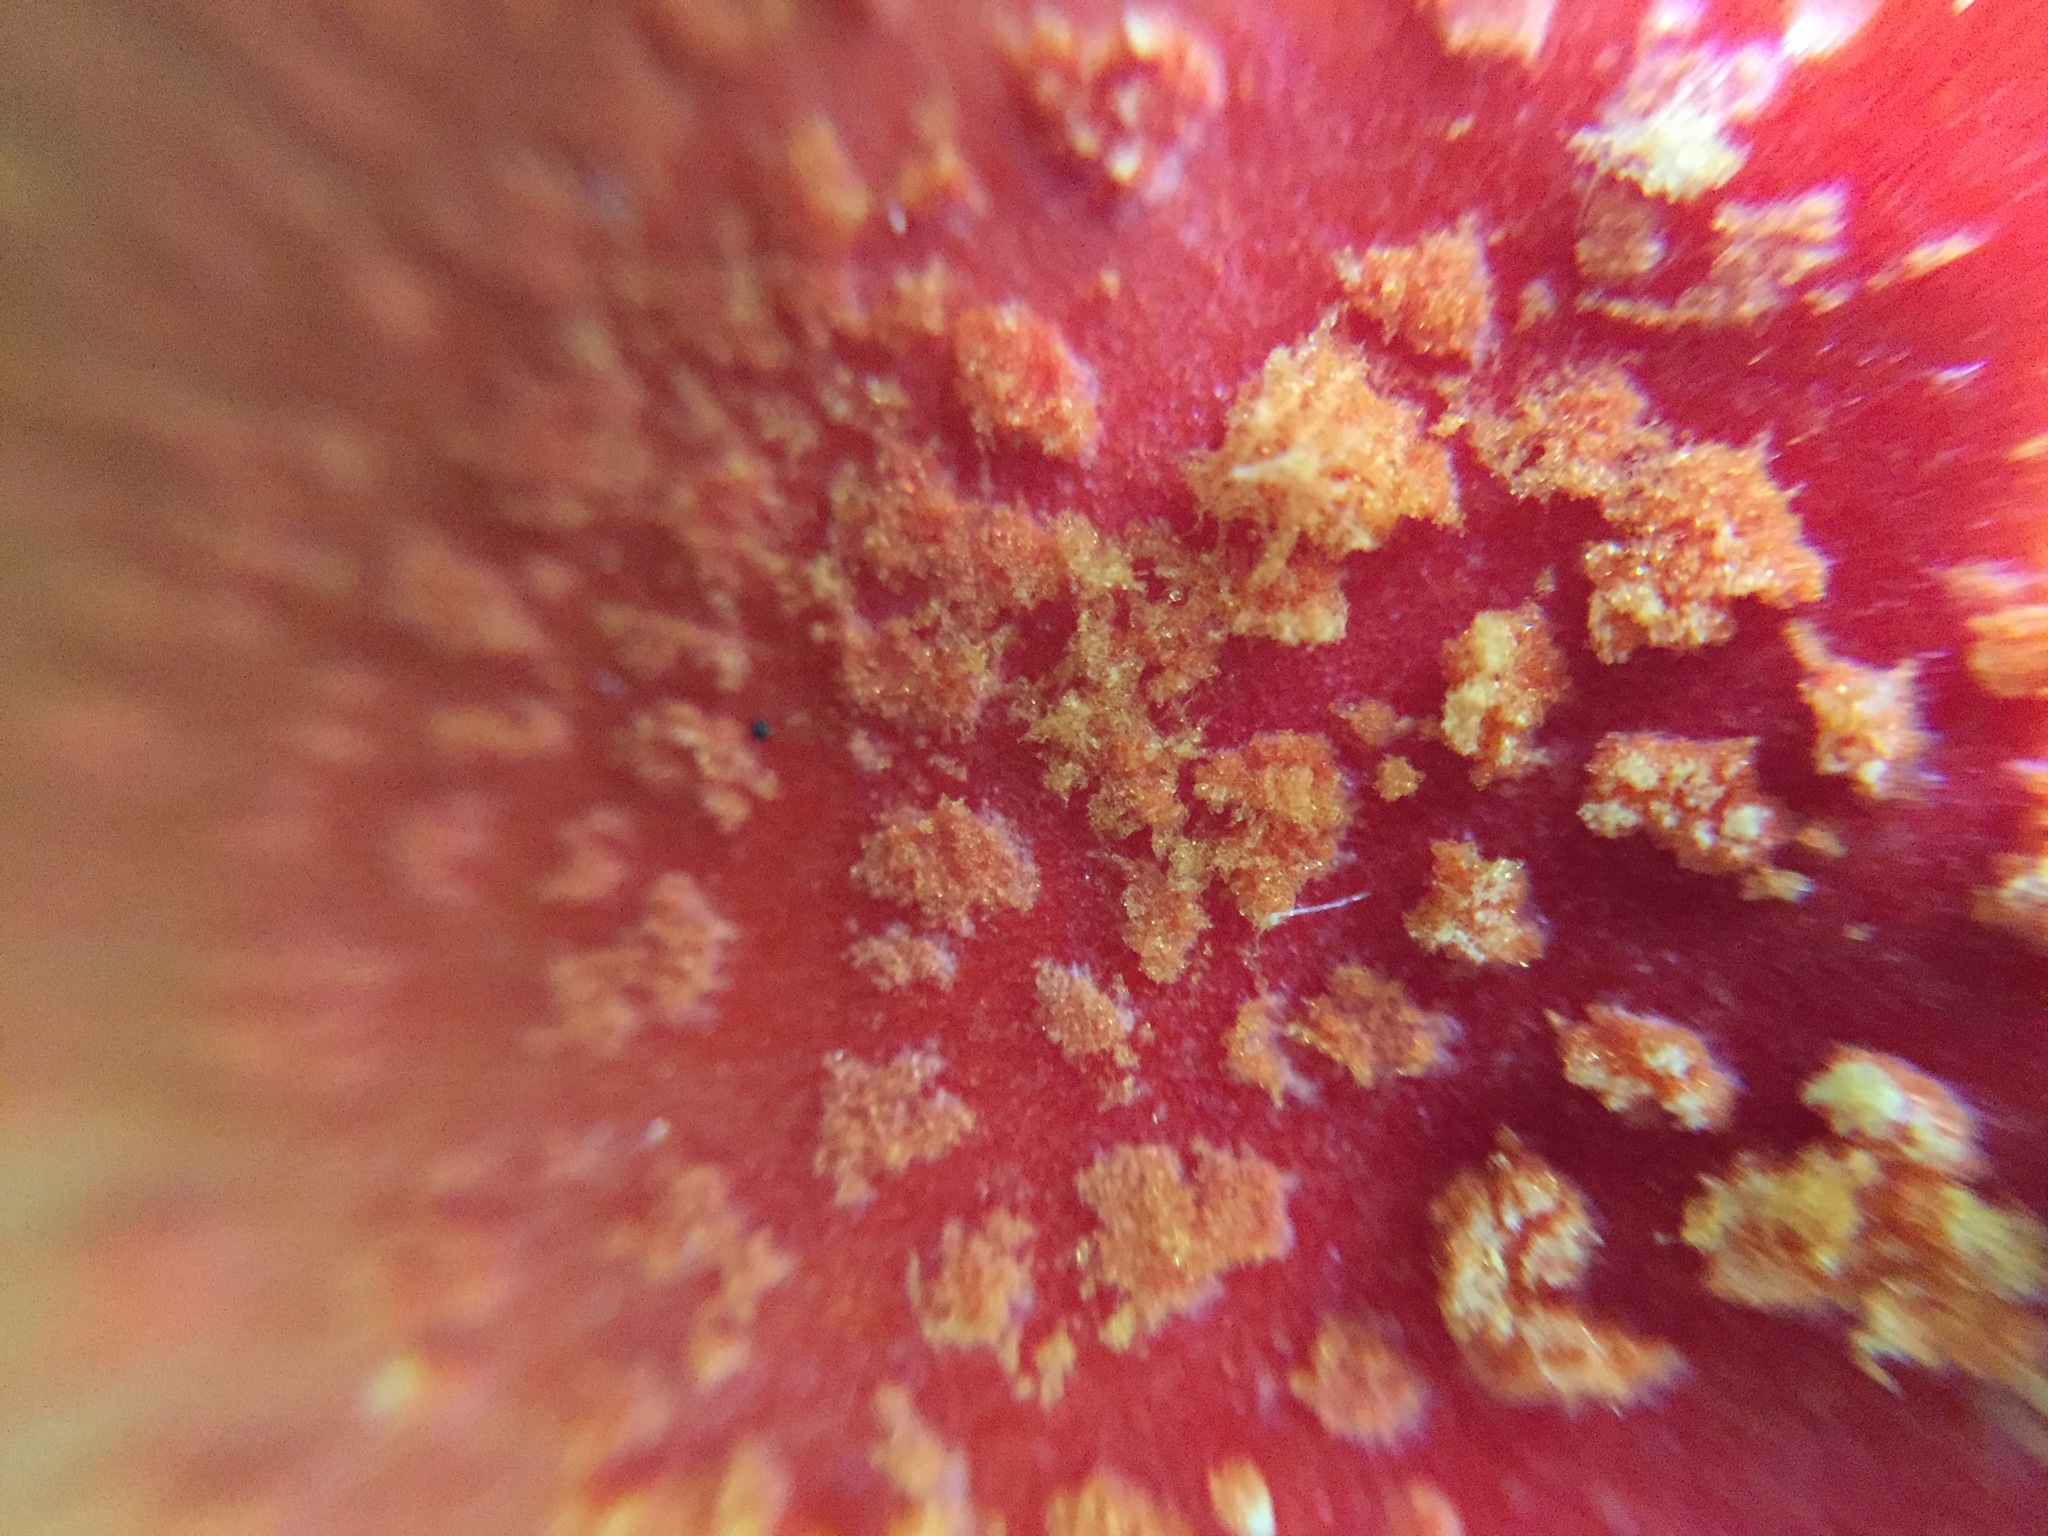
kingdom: Fungi
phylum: Basidiomycota
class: Agaricomycetes
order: Agaricales
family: Amanitaceae
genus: Amanita
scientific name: Amanita rubrovolvata
